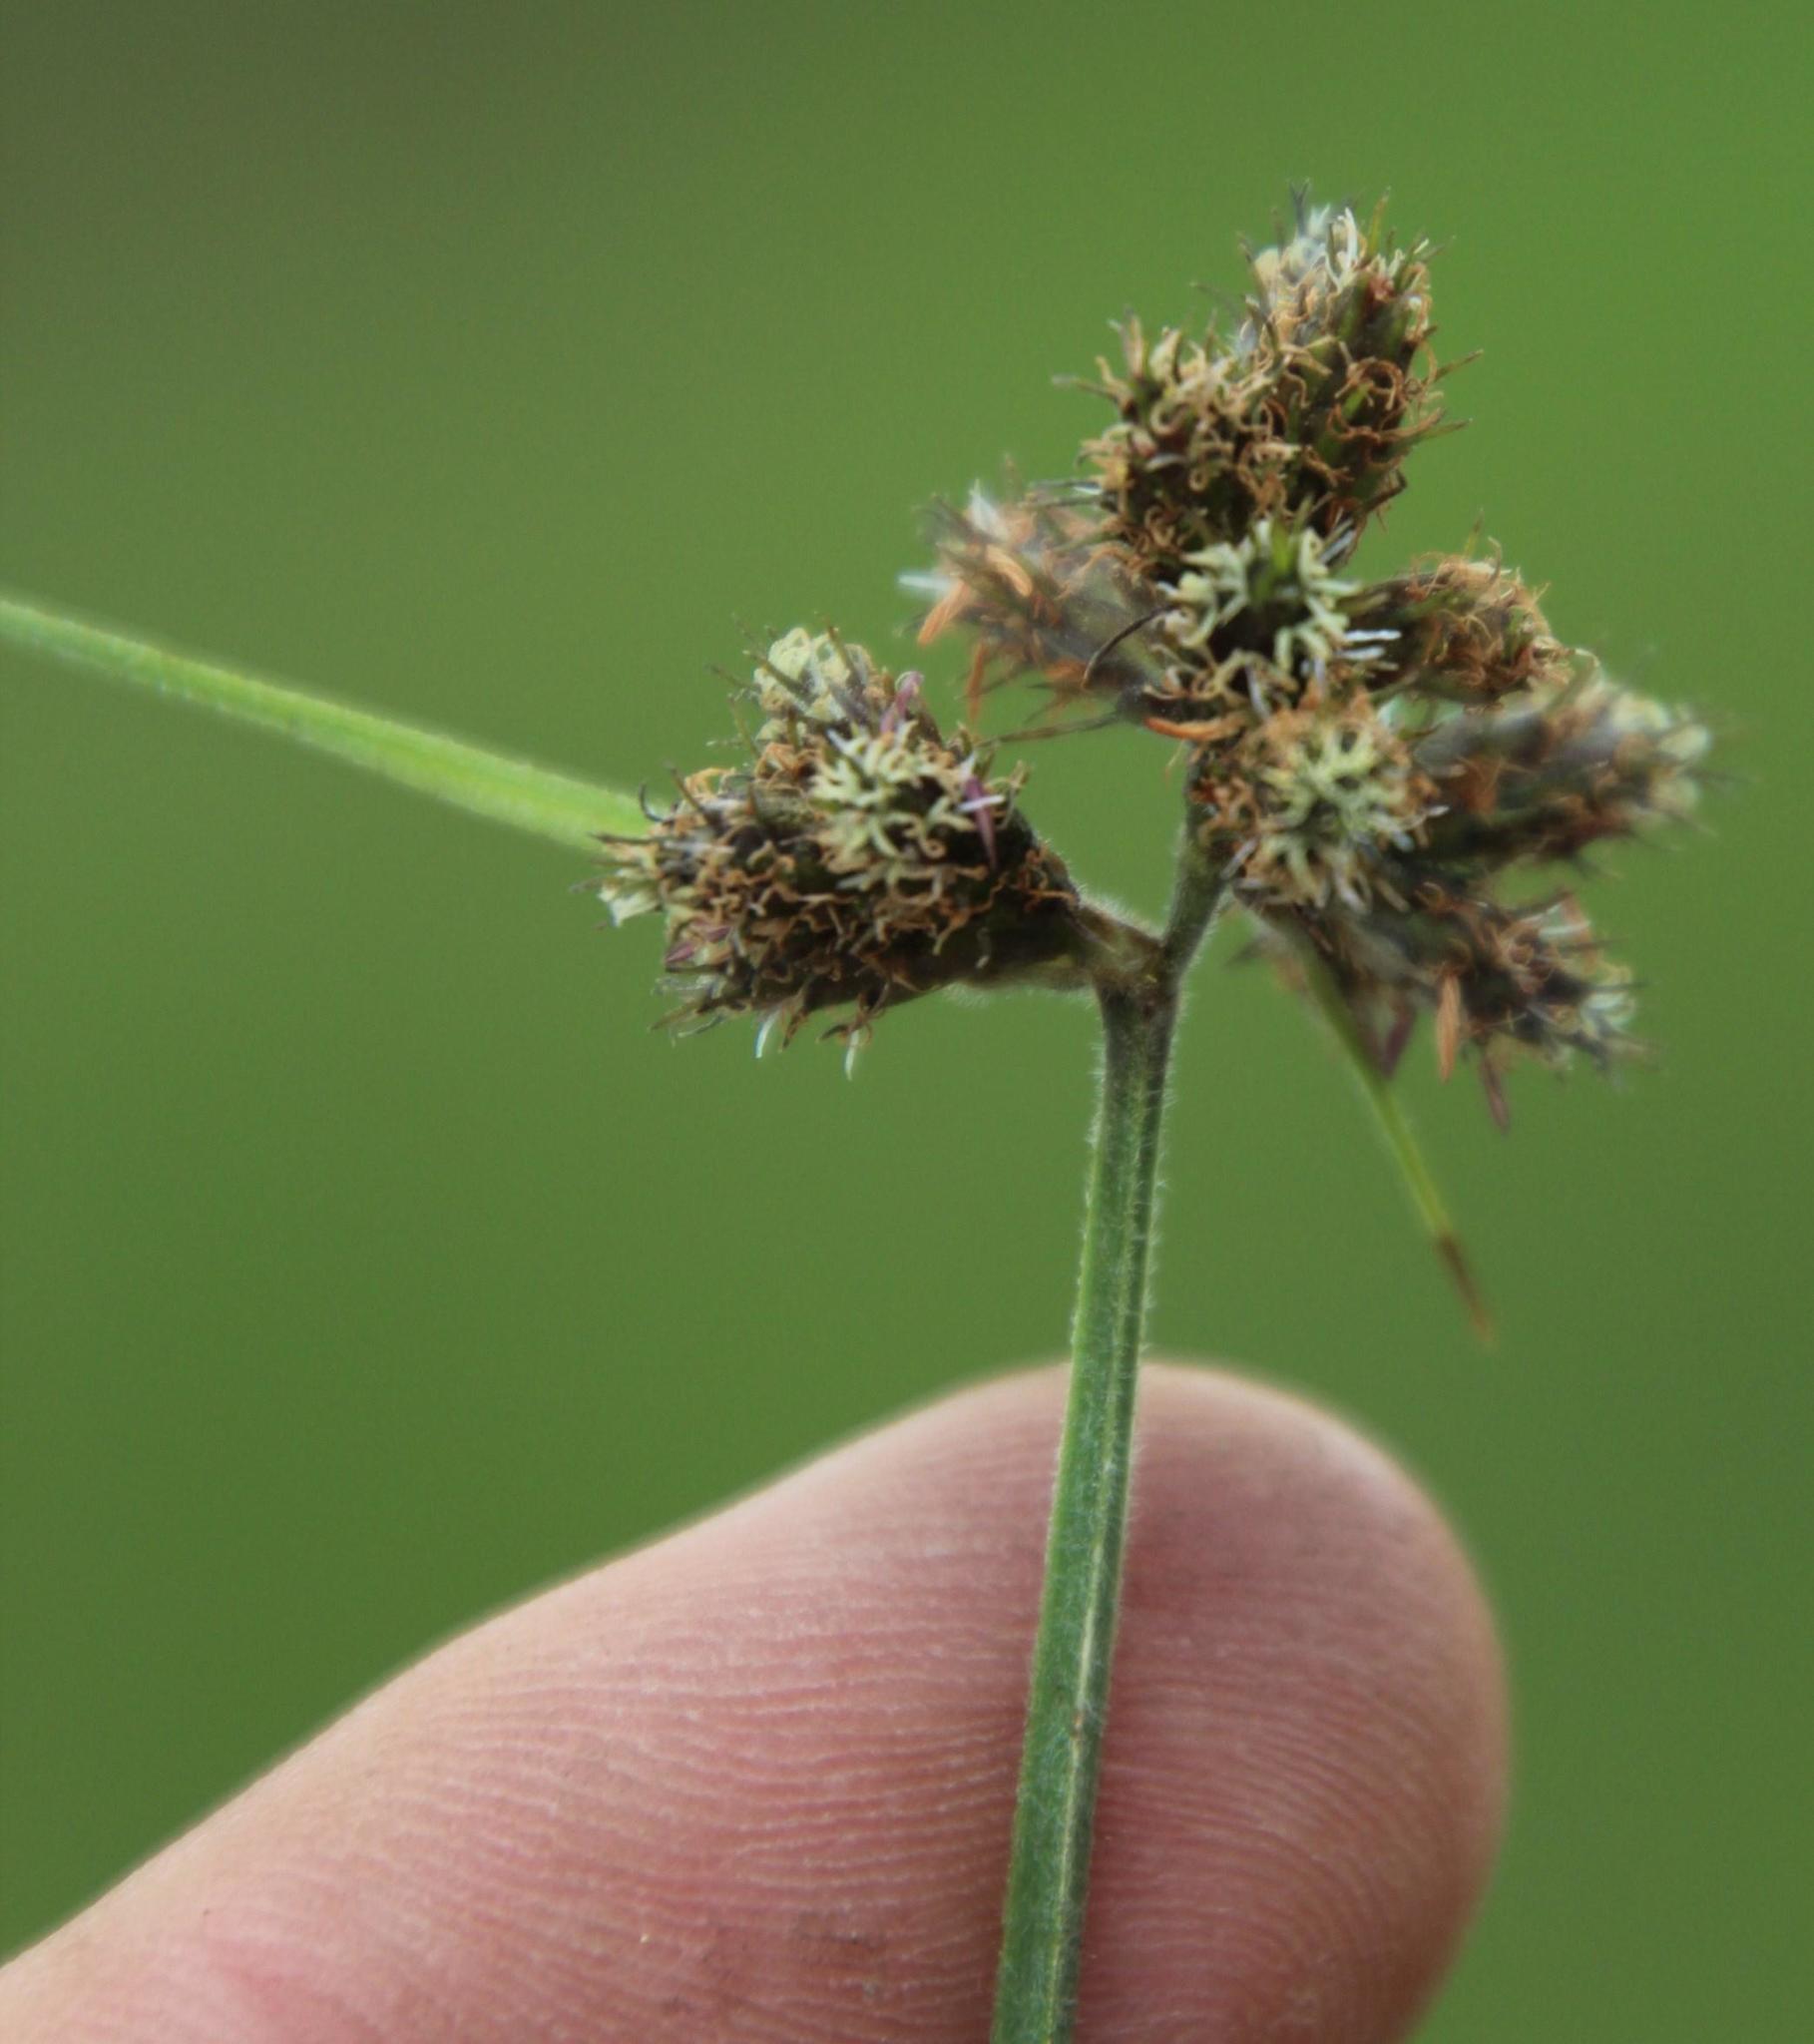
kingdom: Plantae
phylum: Tracheophyta
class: Liliopsida
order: Poales
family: Cyperaceae
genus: Fuirena
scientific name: Fuirena pubescens
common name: Hairy sedge
